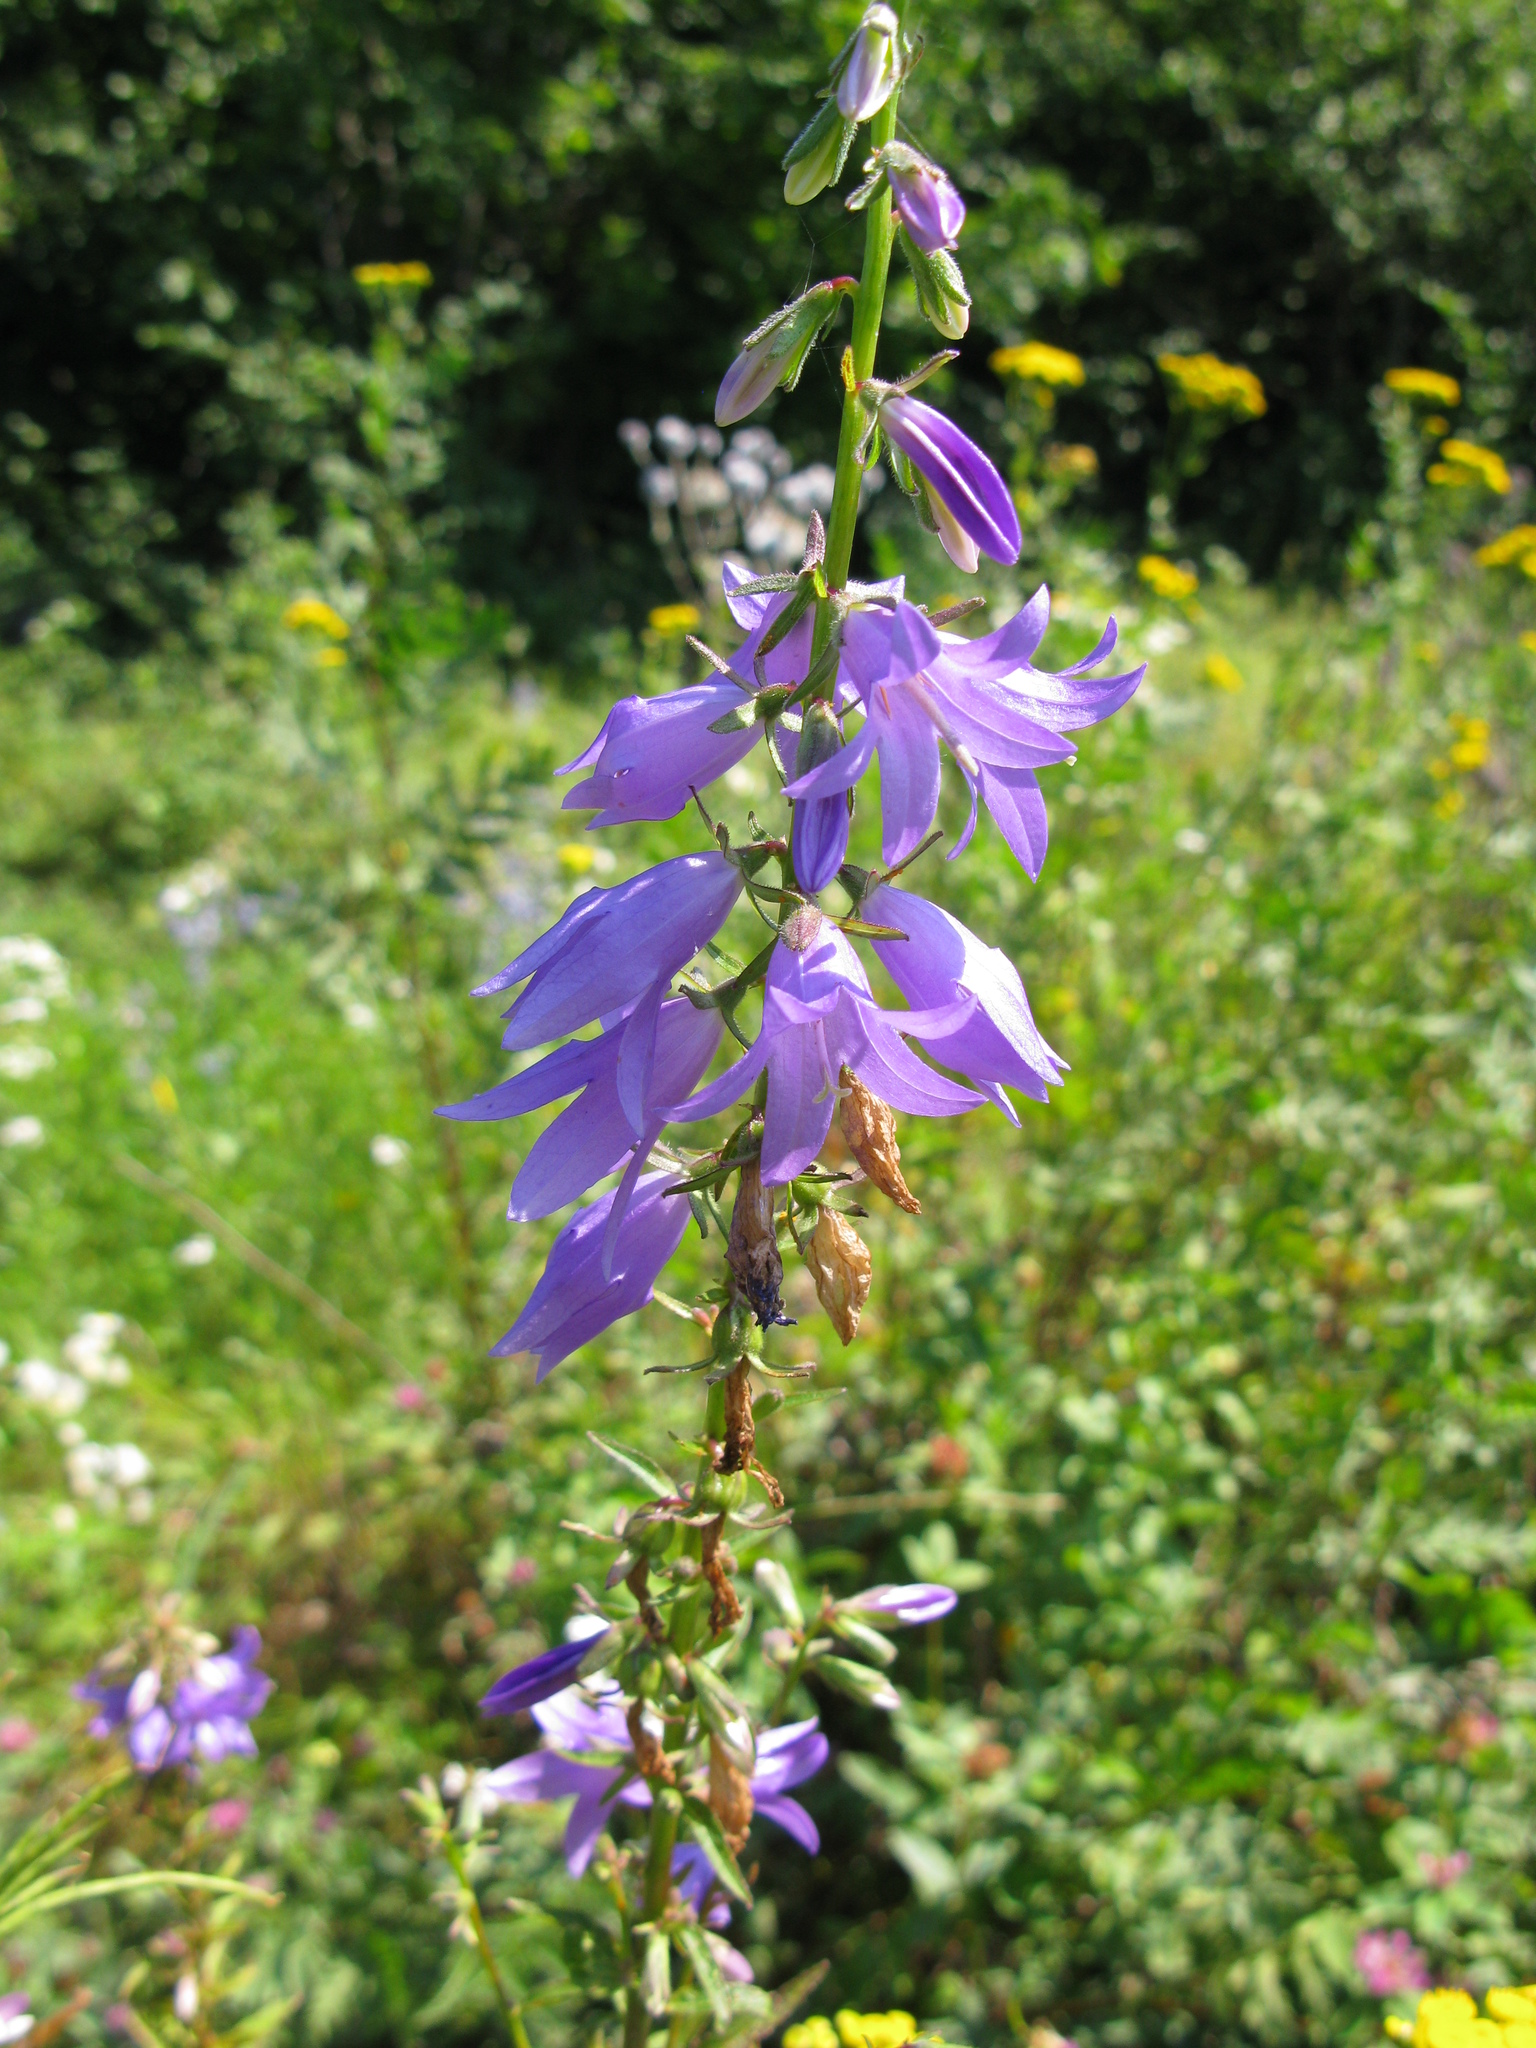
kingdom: Plantae
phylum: Tracheophyta
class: Magnoliopsida
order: Asterales
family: Campanulaceae
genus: Campanula
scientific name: Campanula rapunculoides
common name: Creeping bellflower
